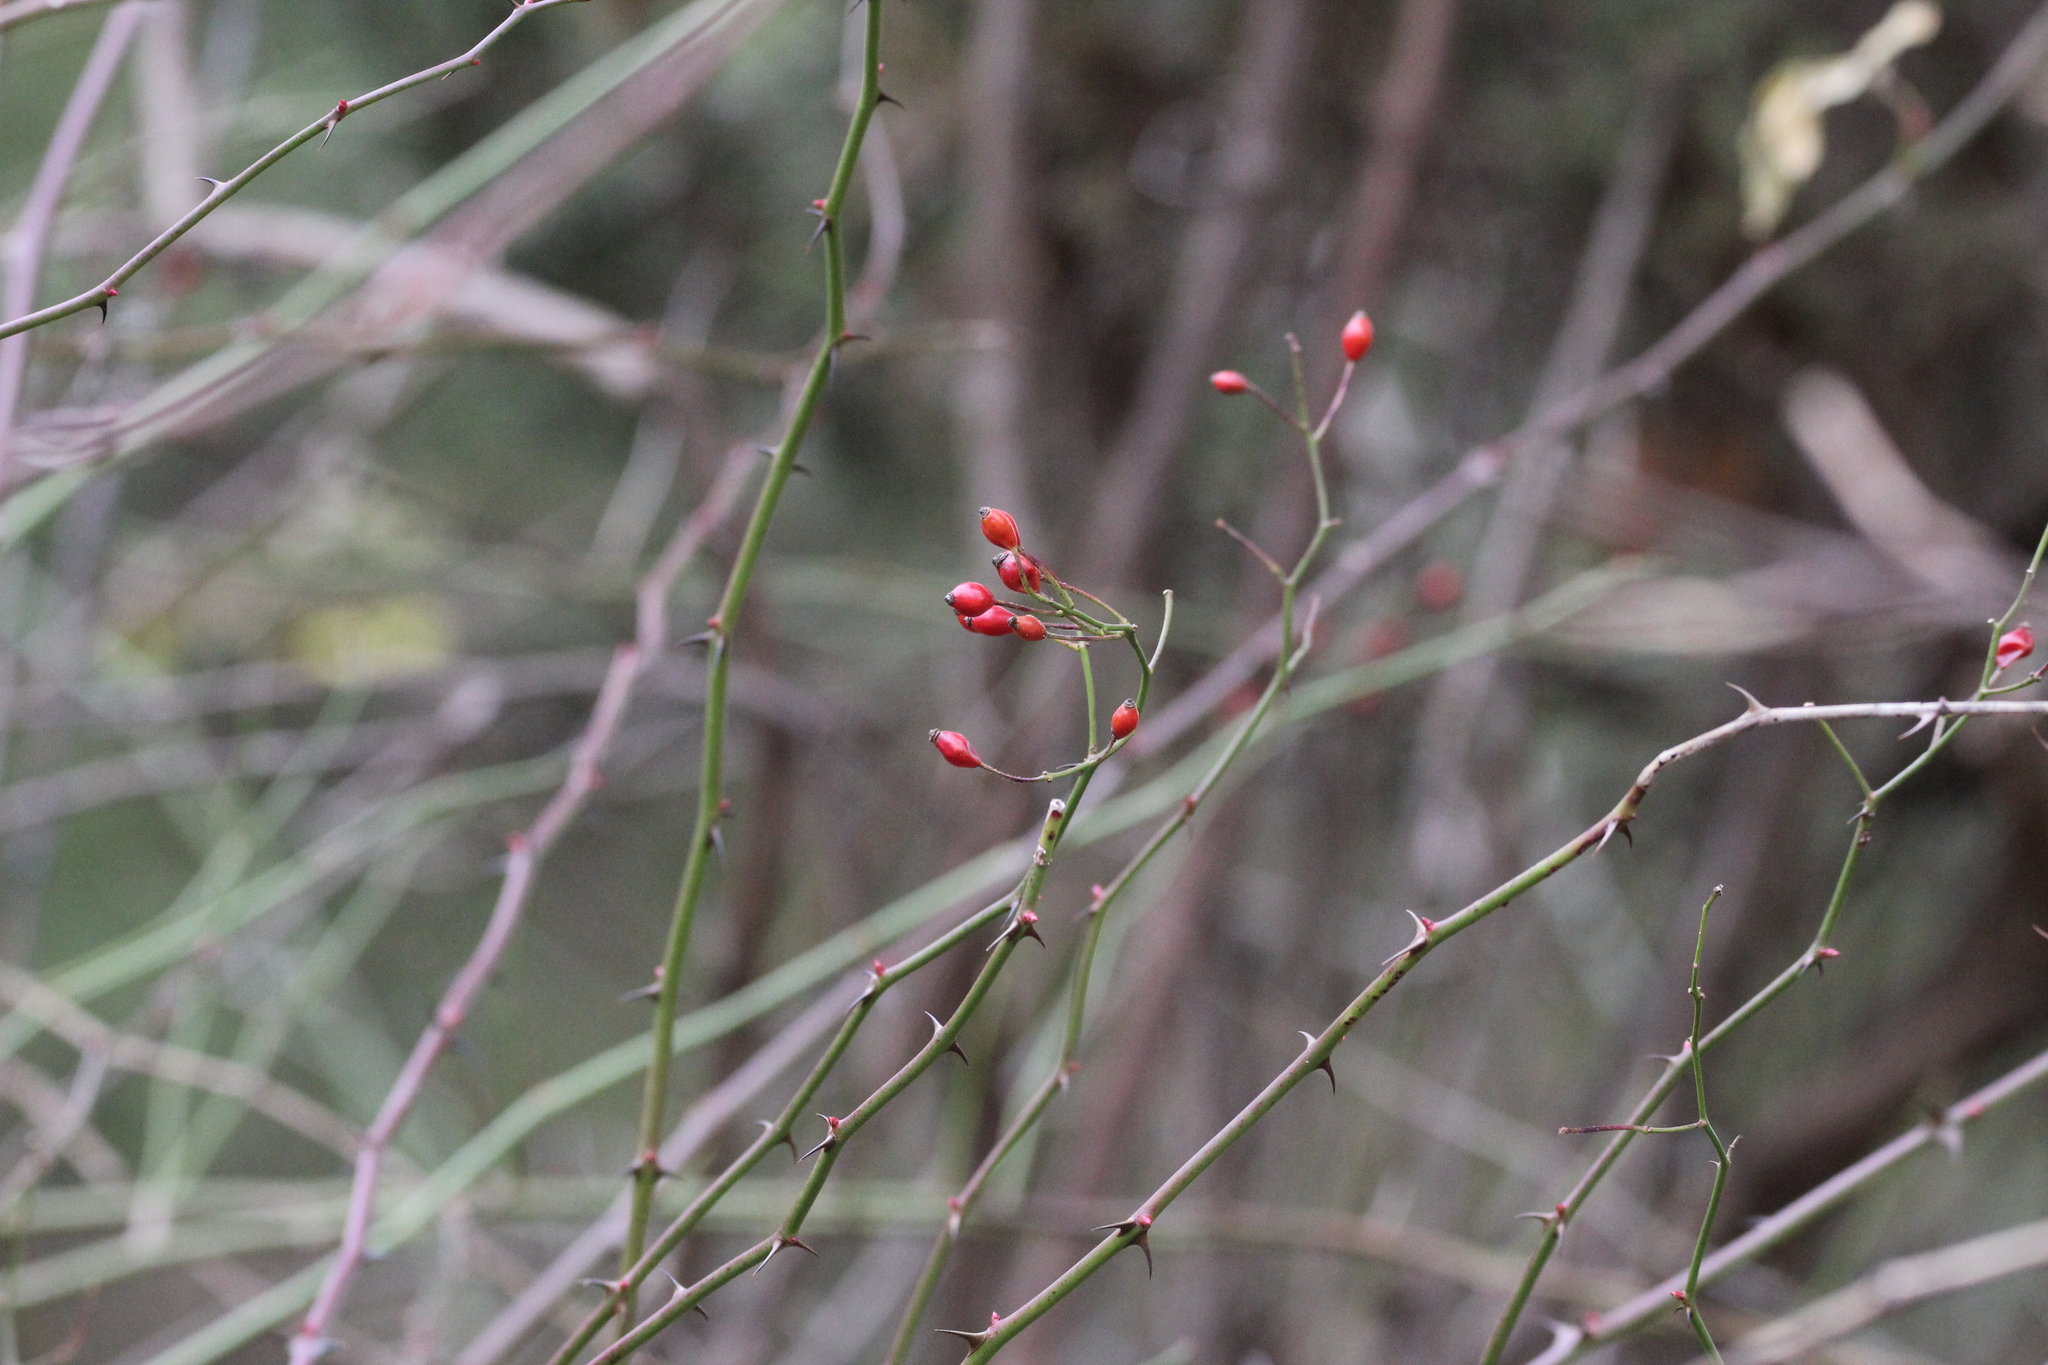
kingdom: Plantae
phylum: Tracheophyta
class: Magnoliopsida
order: Rosales
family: Rosaceae
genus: Rosa
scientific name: Rosa multiflora
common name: Multiflora rose
